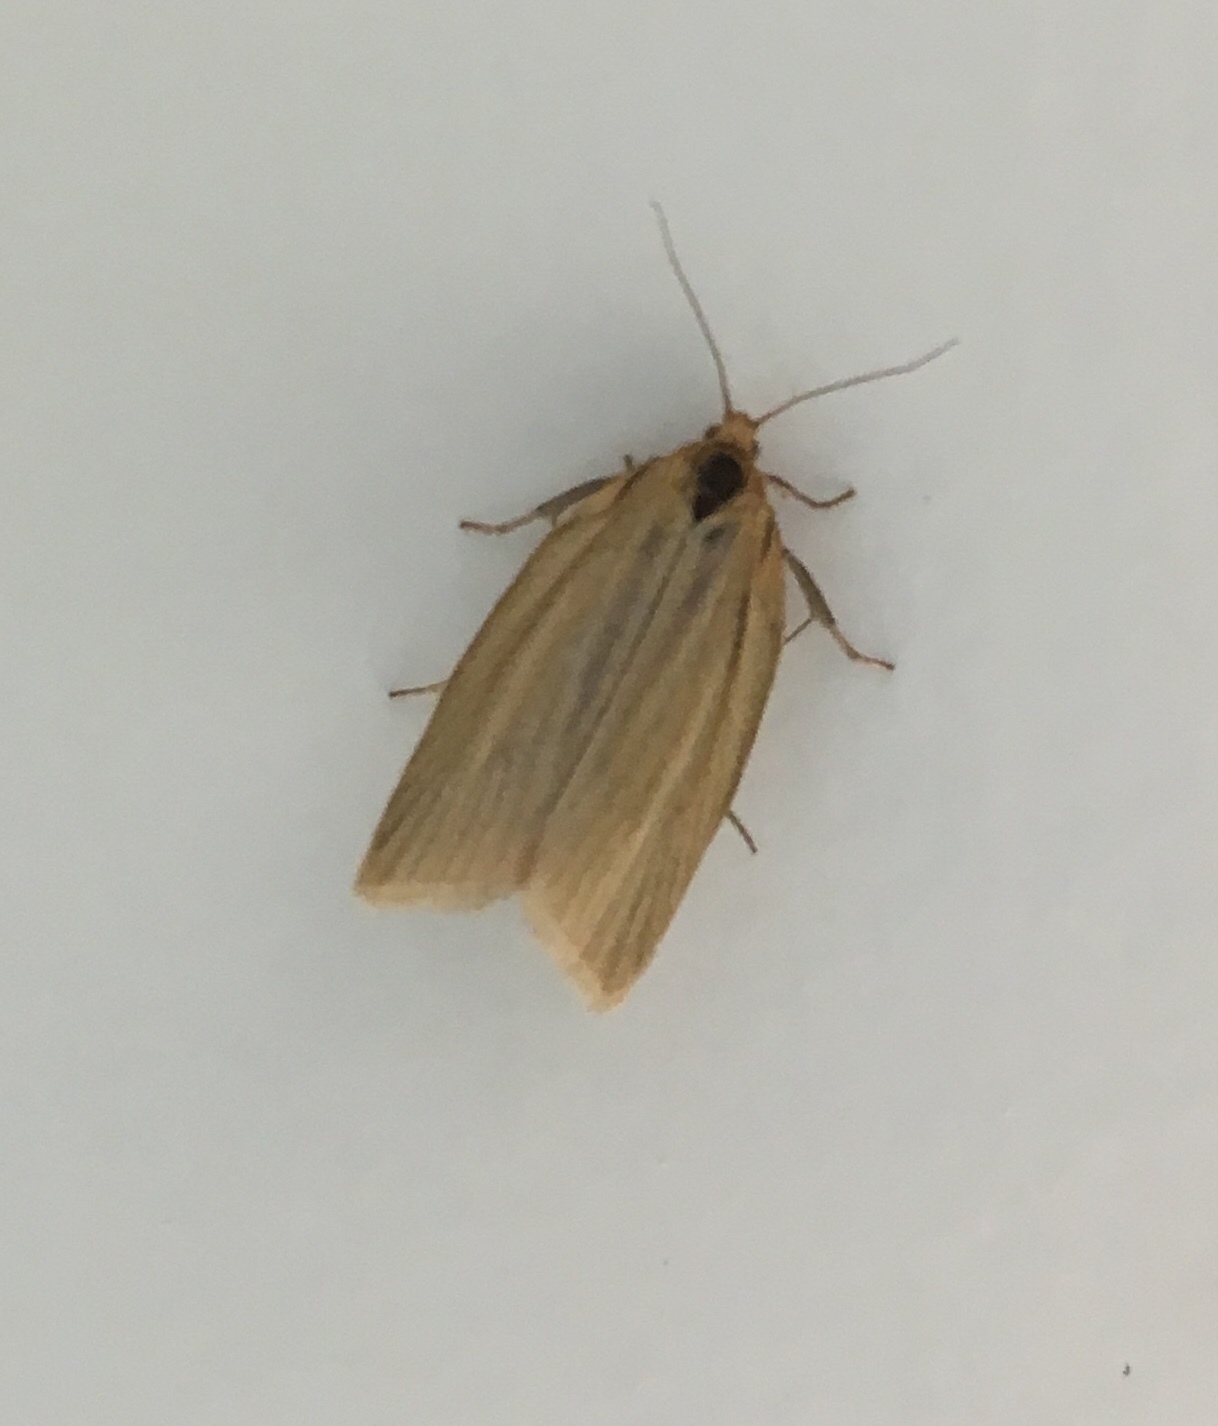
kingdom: Animalia
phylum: Arthropoda
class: Insecta
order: Lepidoptera
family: Tortricidae
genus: Clepsis
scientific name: Clepsis clemensiana
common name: Clemens' clepsis moth
